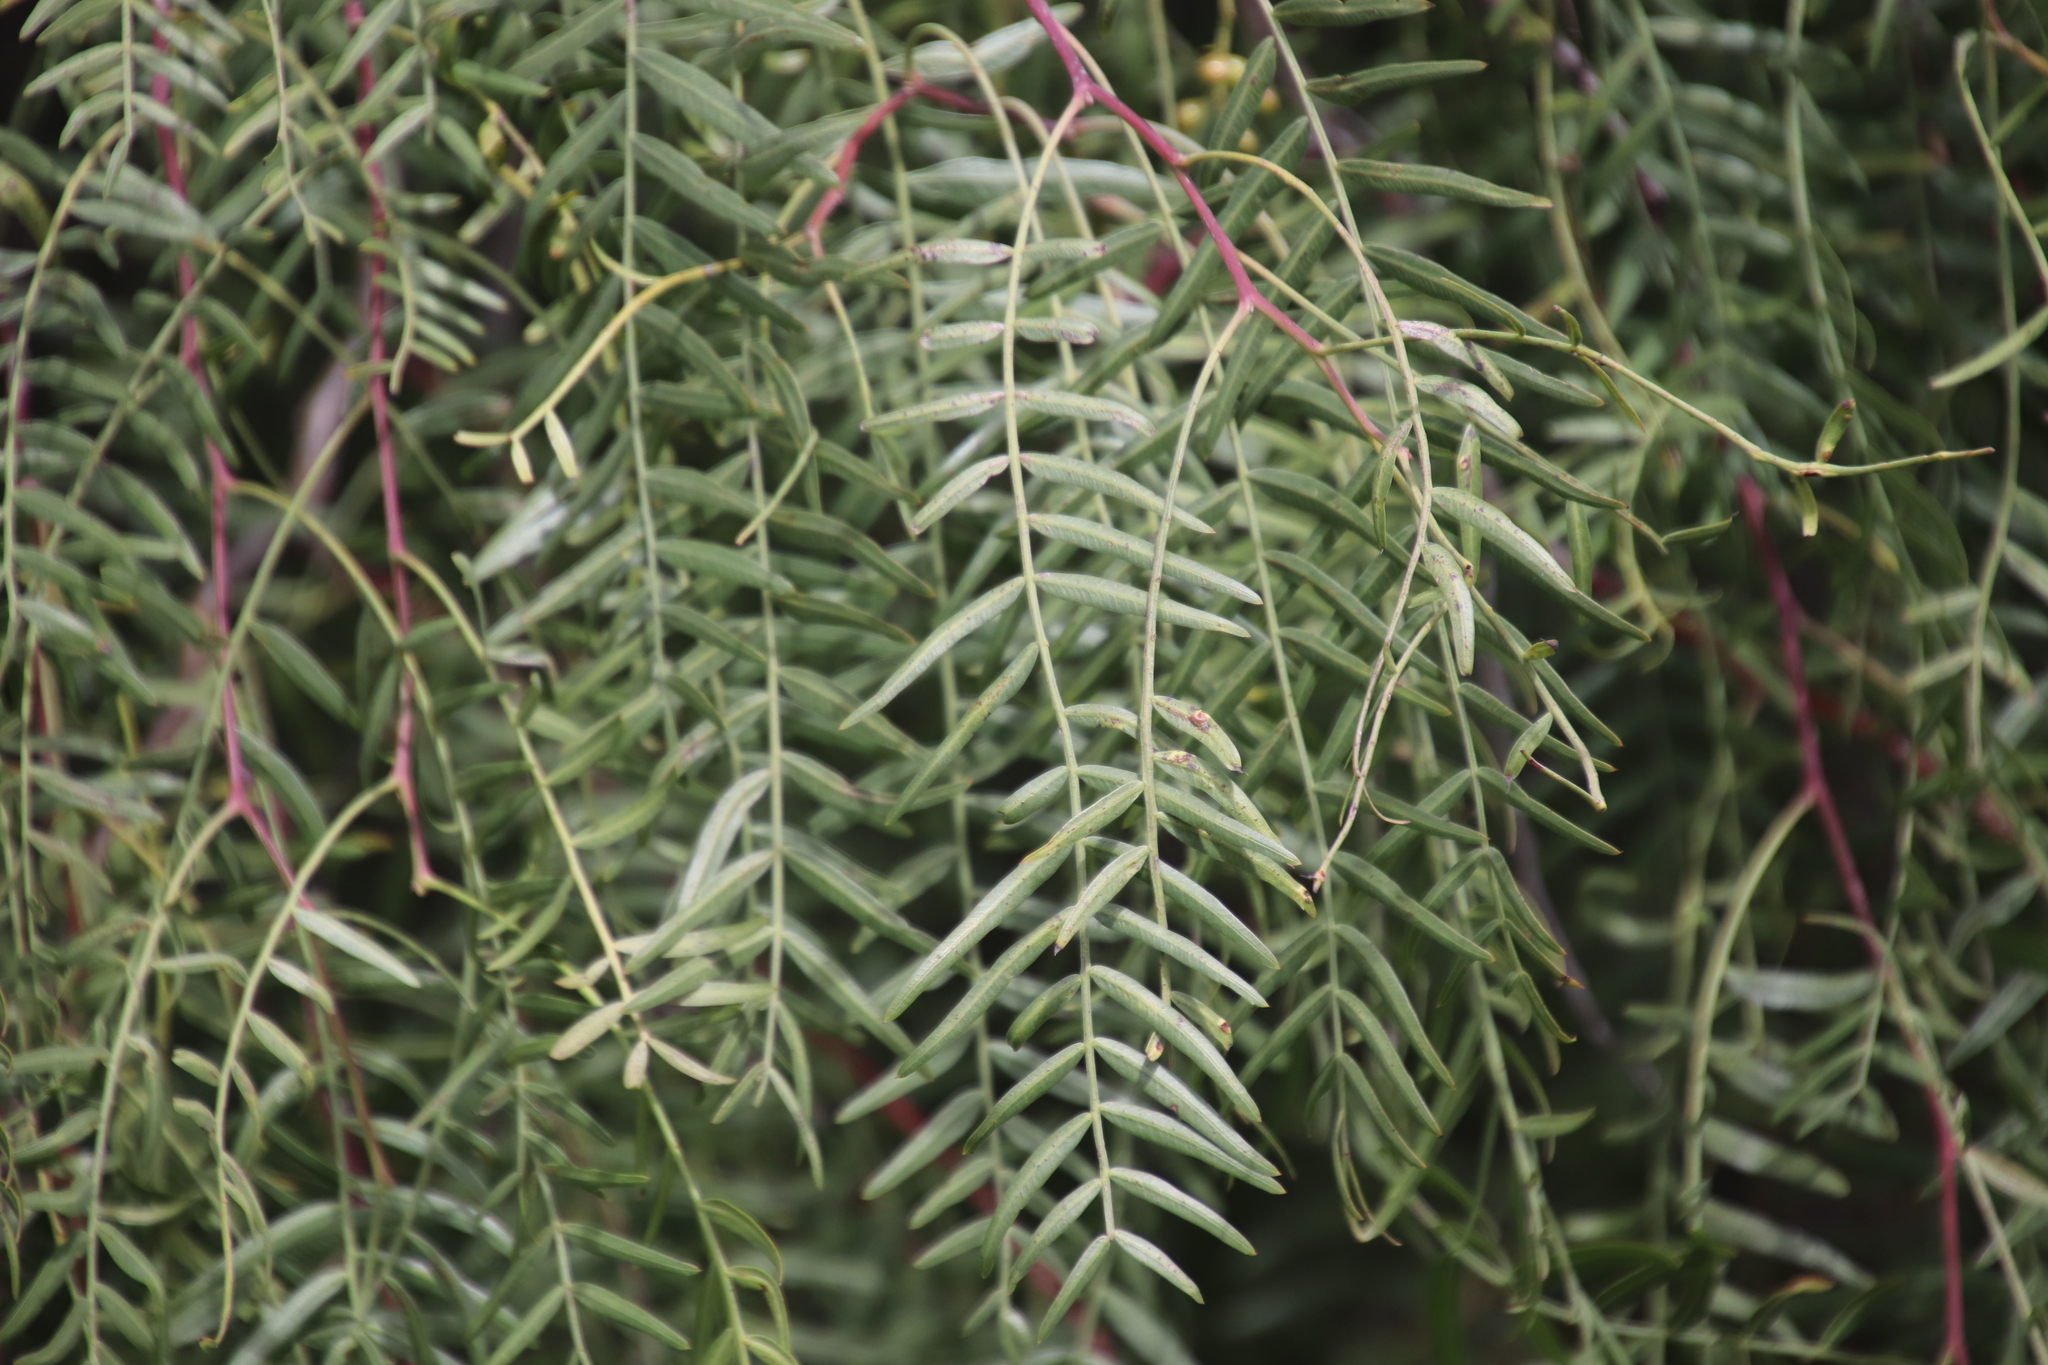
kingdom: Plantae
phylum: Tracheophyta
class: Magnoliopsida
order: Sapindales
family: Anacardiaceae
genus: Schinus
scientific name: Schinus molle
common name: Peruvian peppertree
